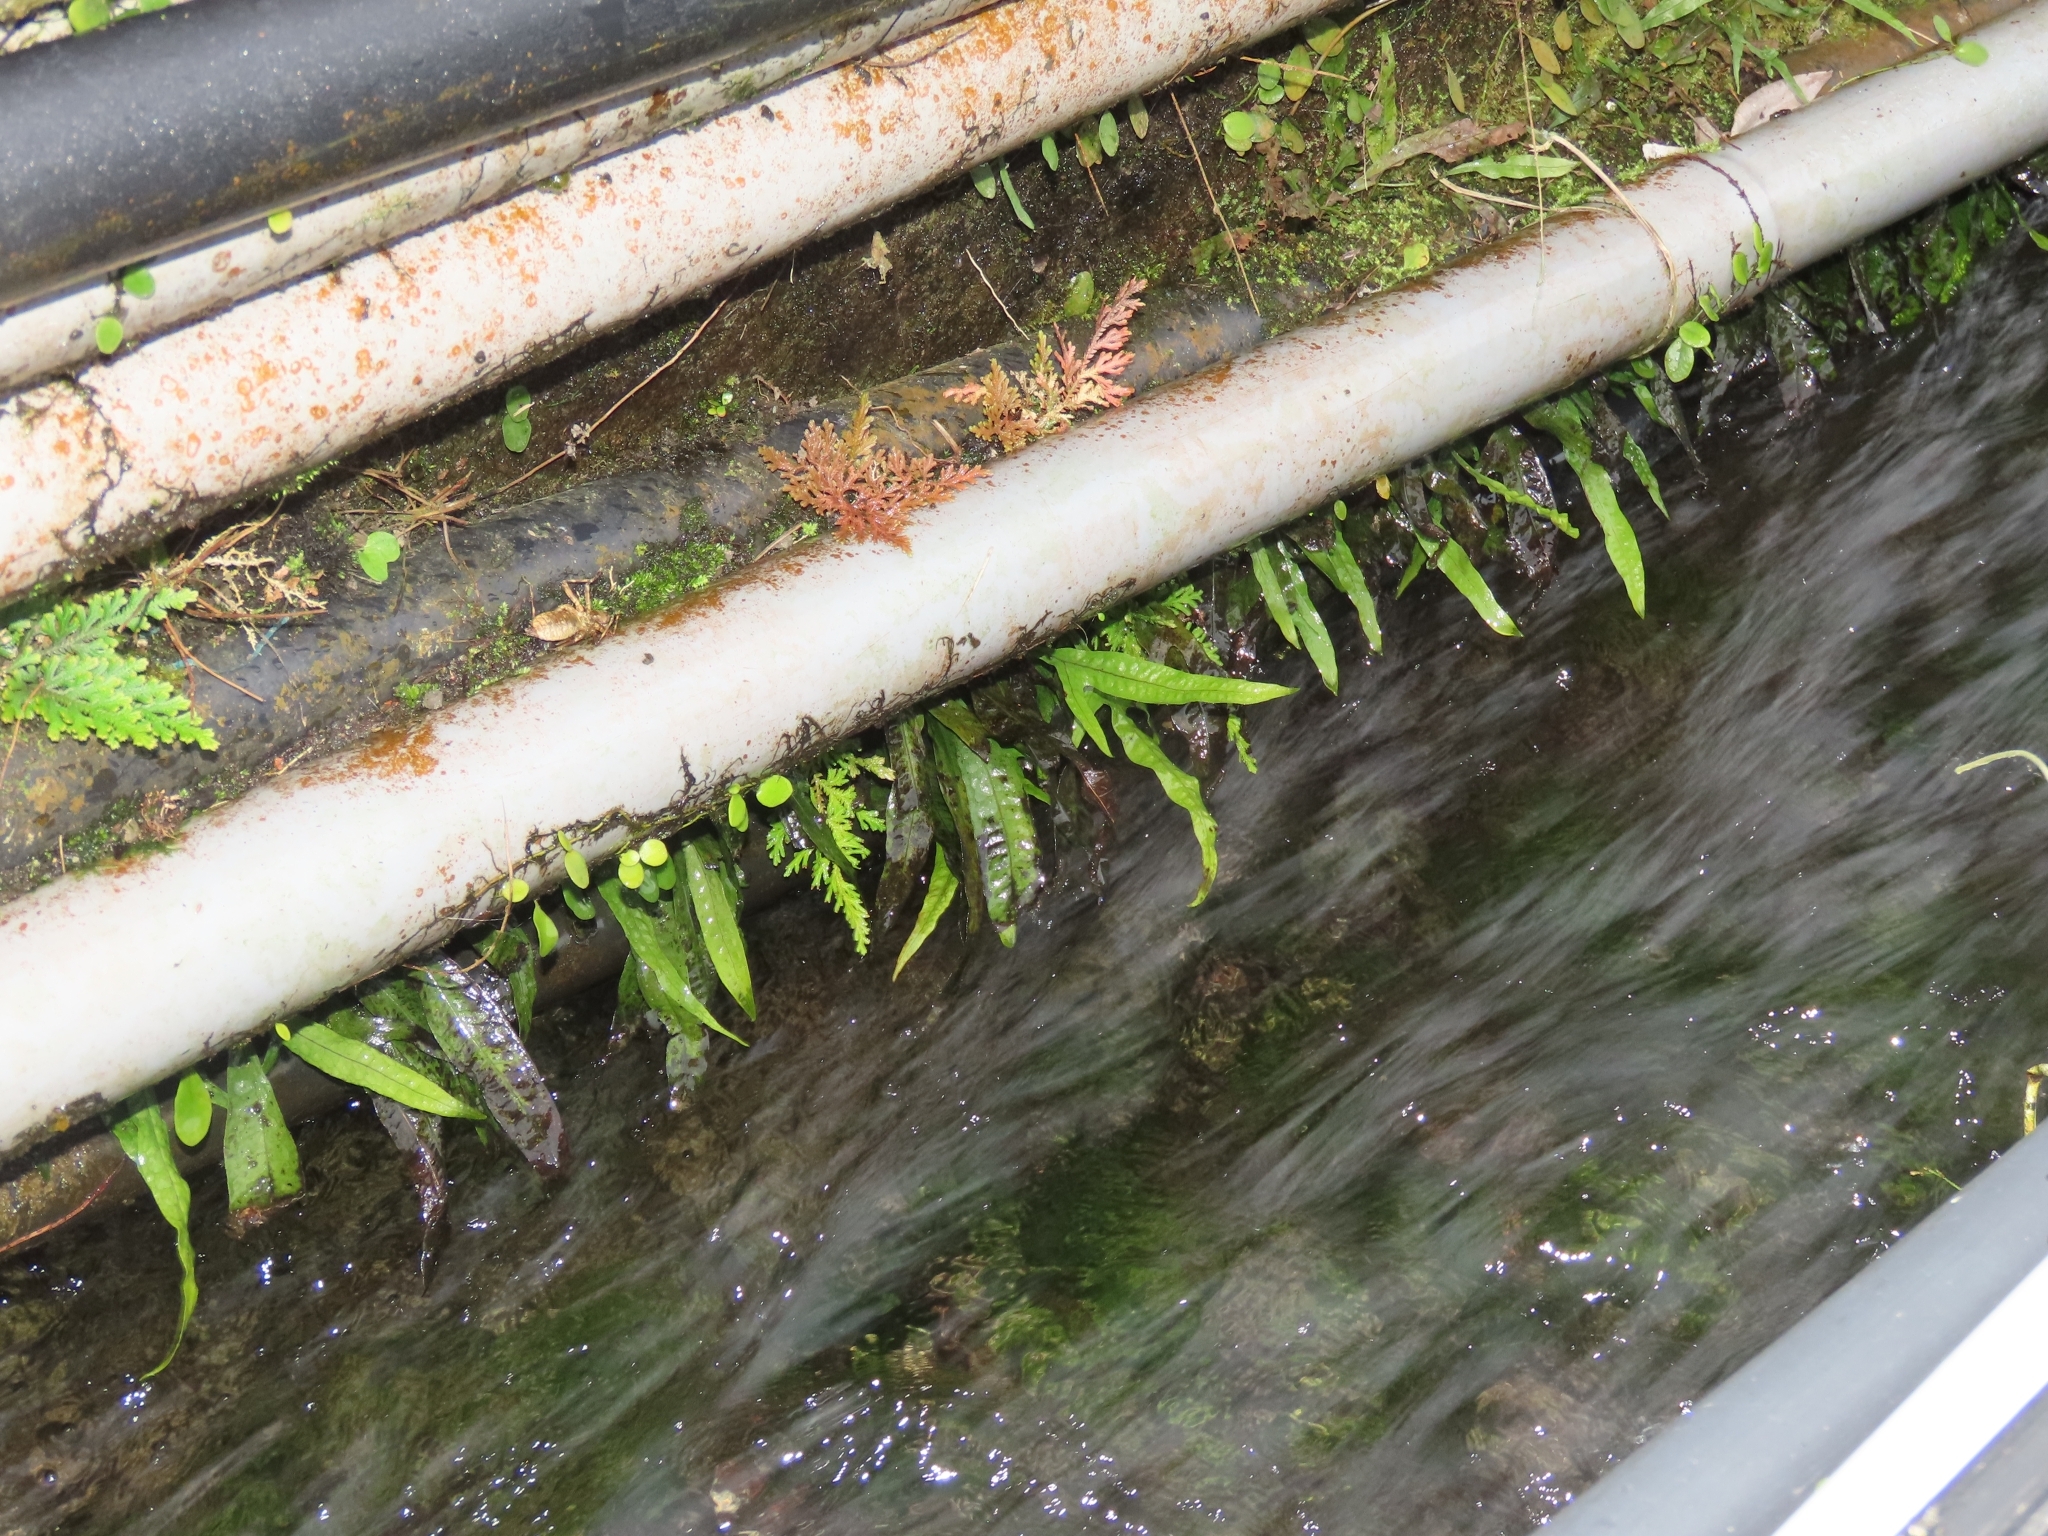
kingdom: Plantae
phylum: Tracheophyta
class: Polypodiopsida
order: Polypodiales
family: Polypodiaceae
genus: Leptochilus
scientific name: Leptochilus pteropus
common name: Java fern
